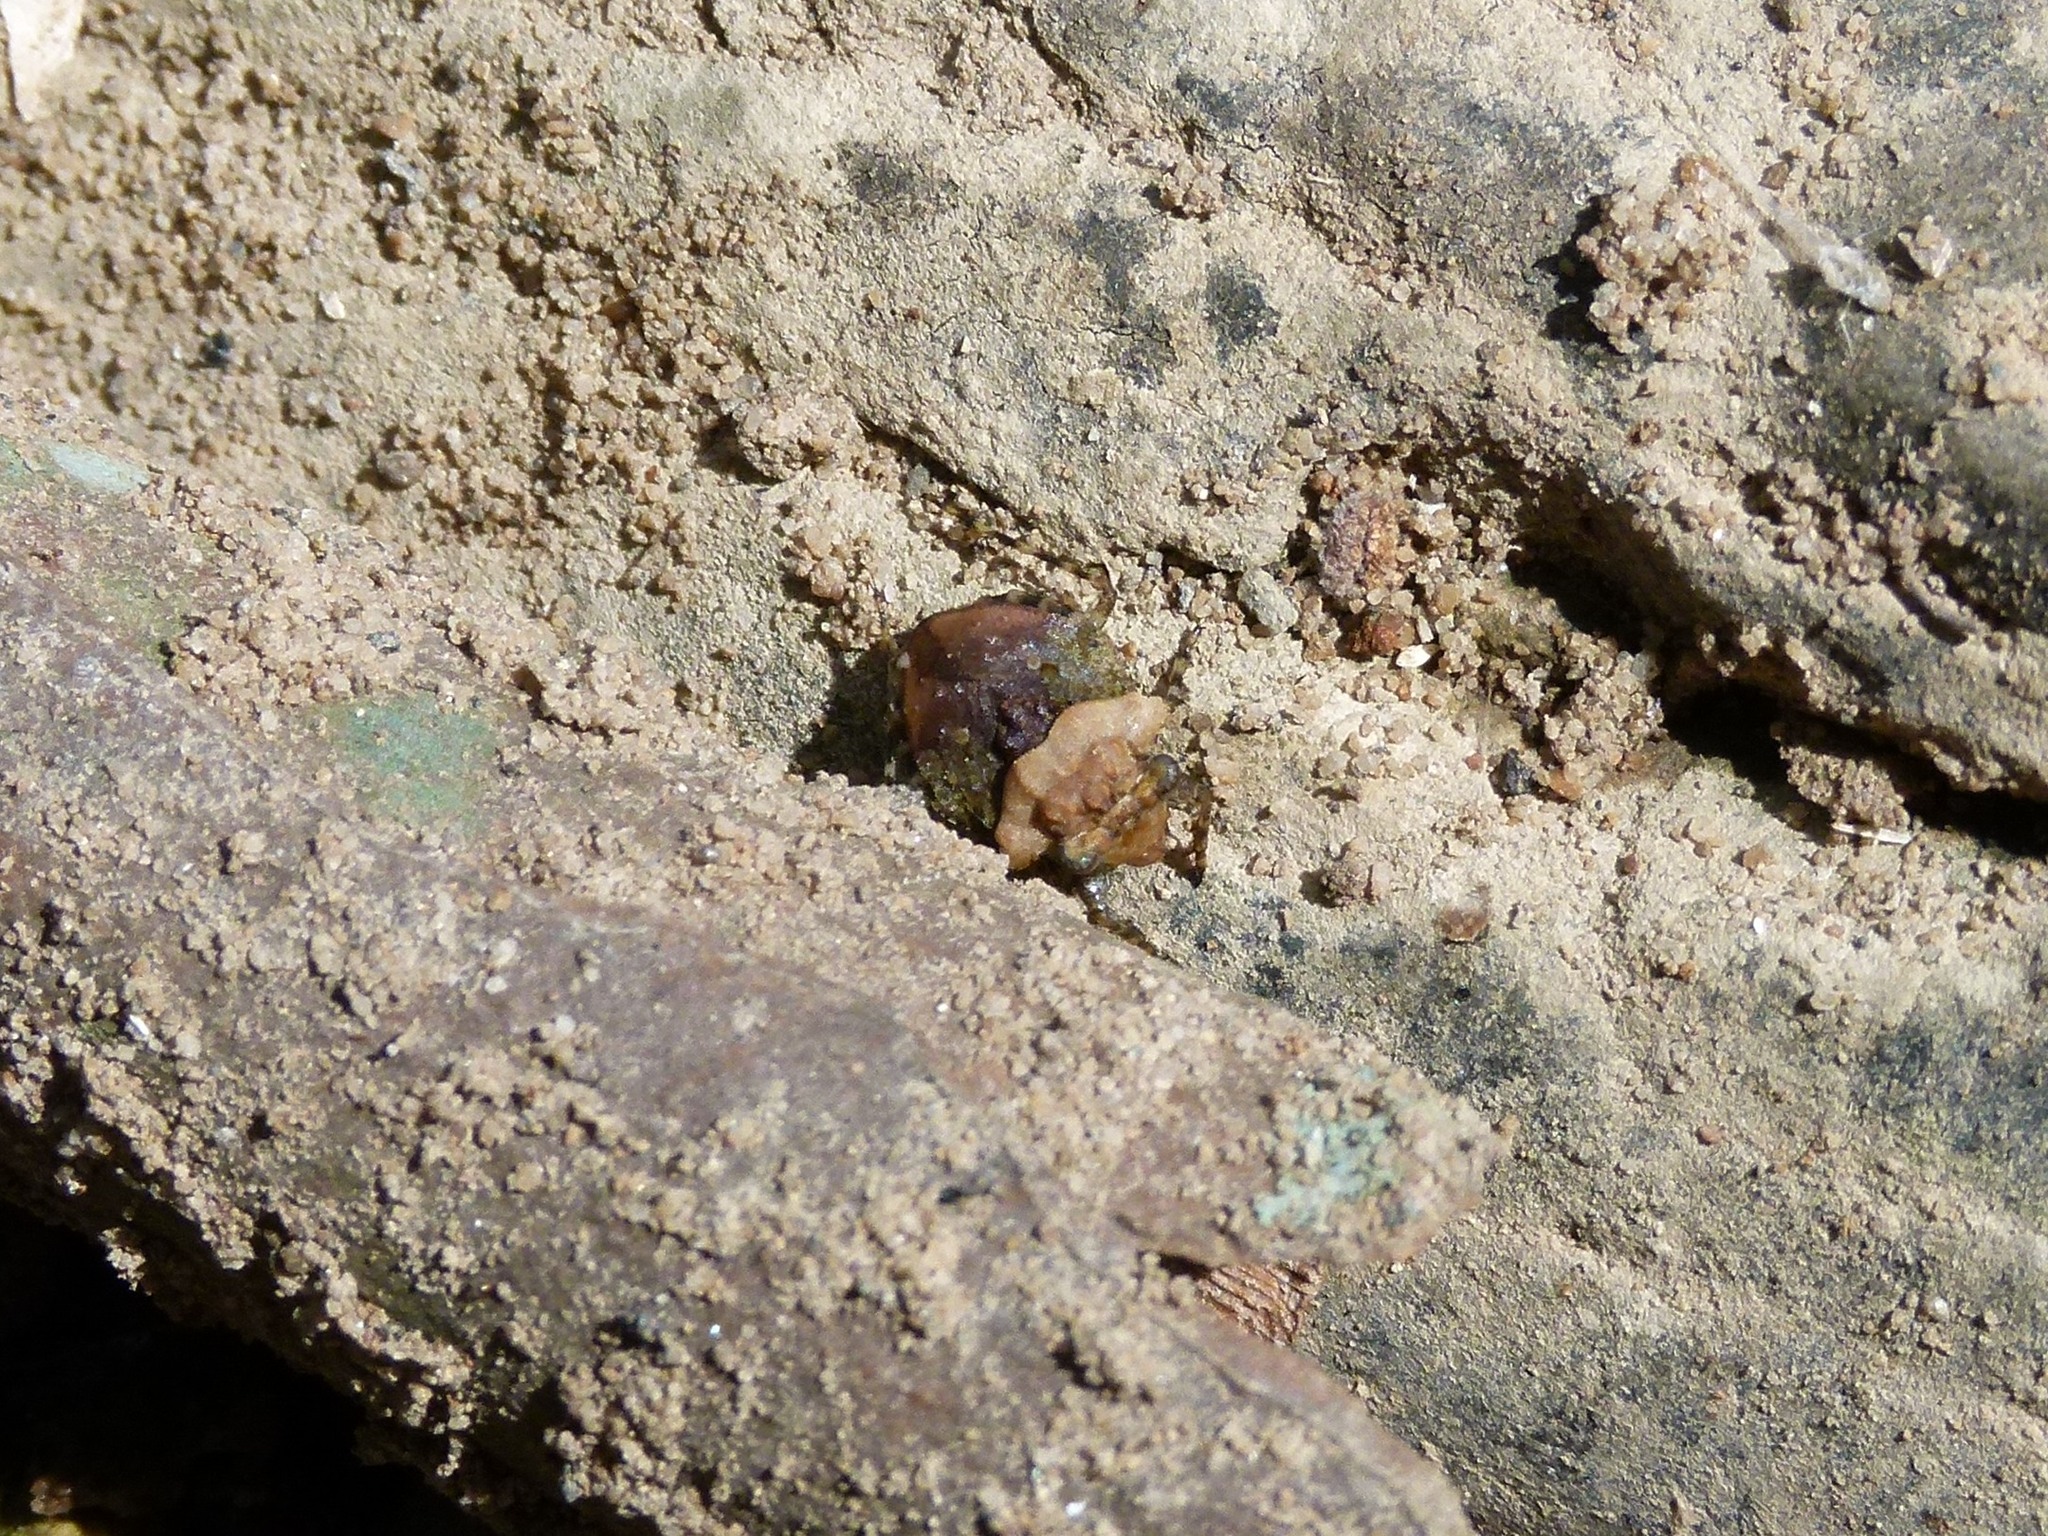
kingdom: Animalia
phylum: Arthropoda
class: Insecta
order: Hemiptera
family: Gelastocoridae
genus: Gelastocoris
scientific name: Gelastocoris oculatus
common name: Toad bug
